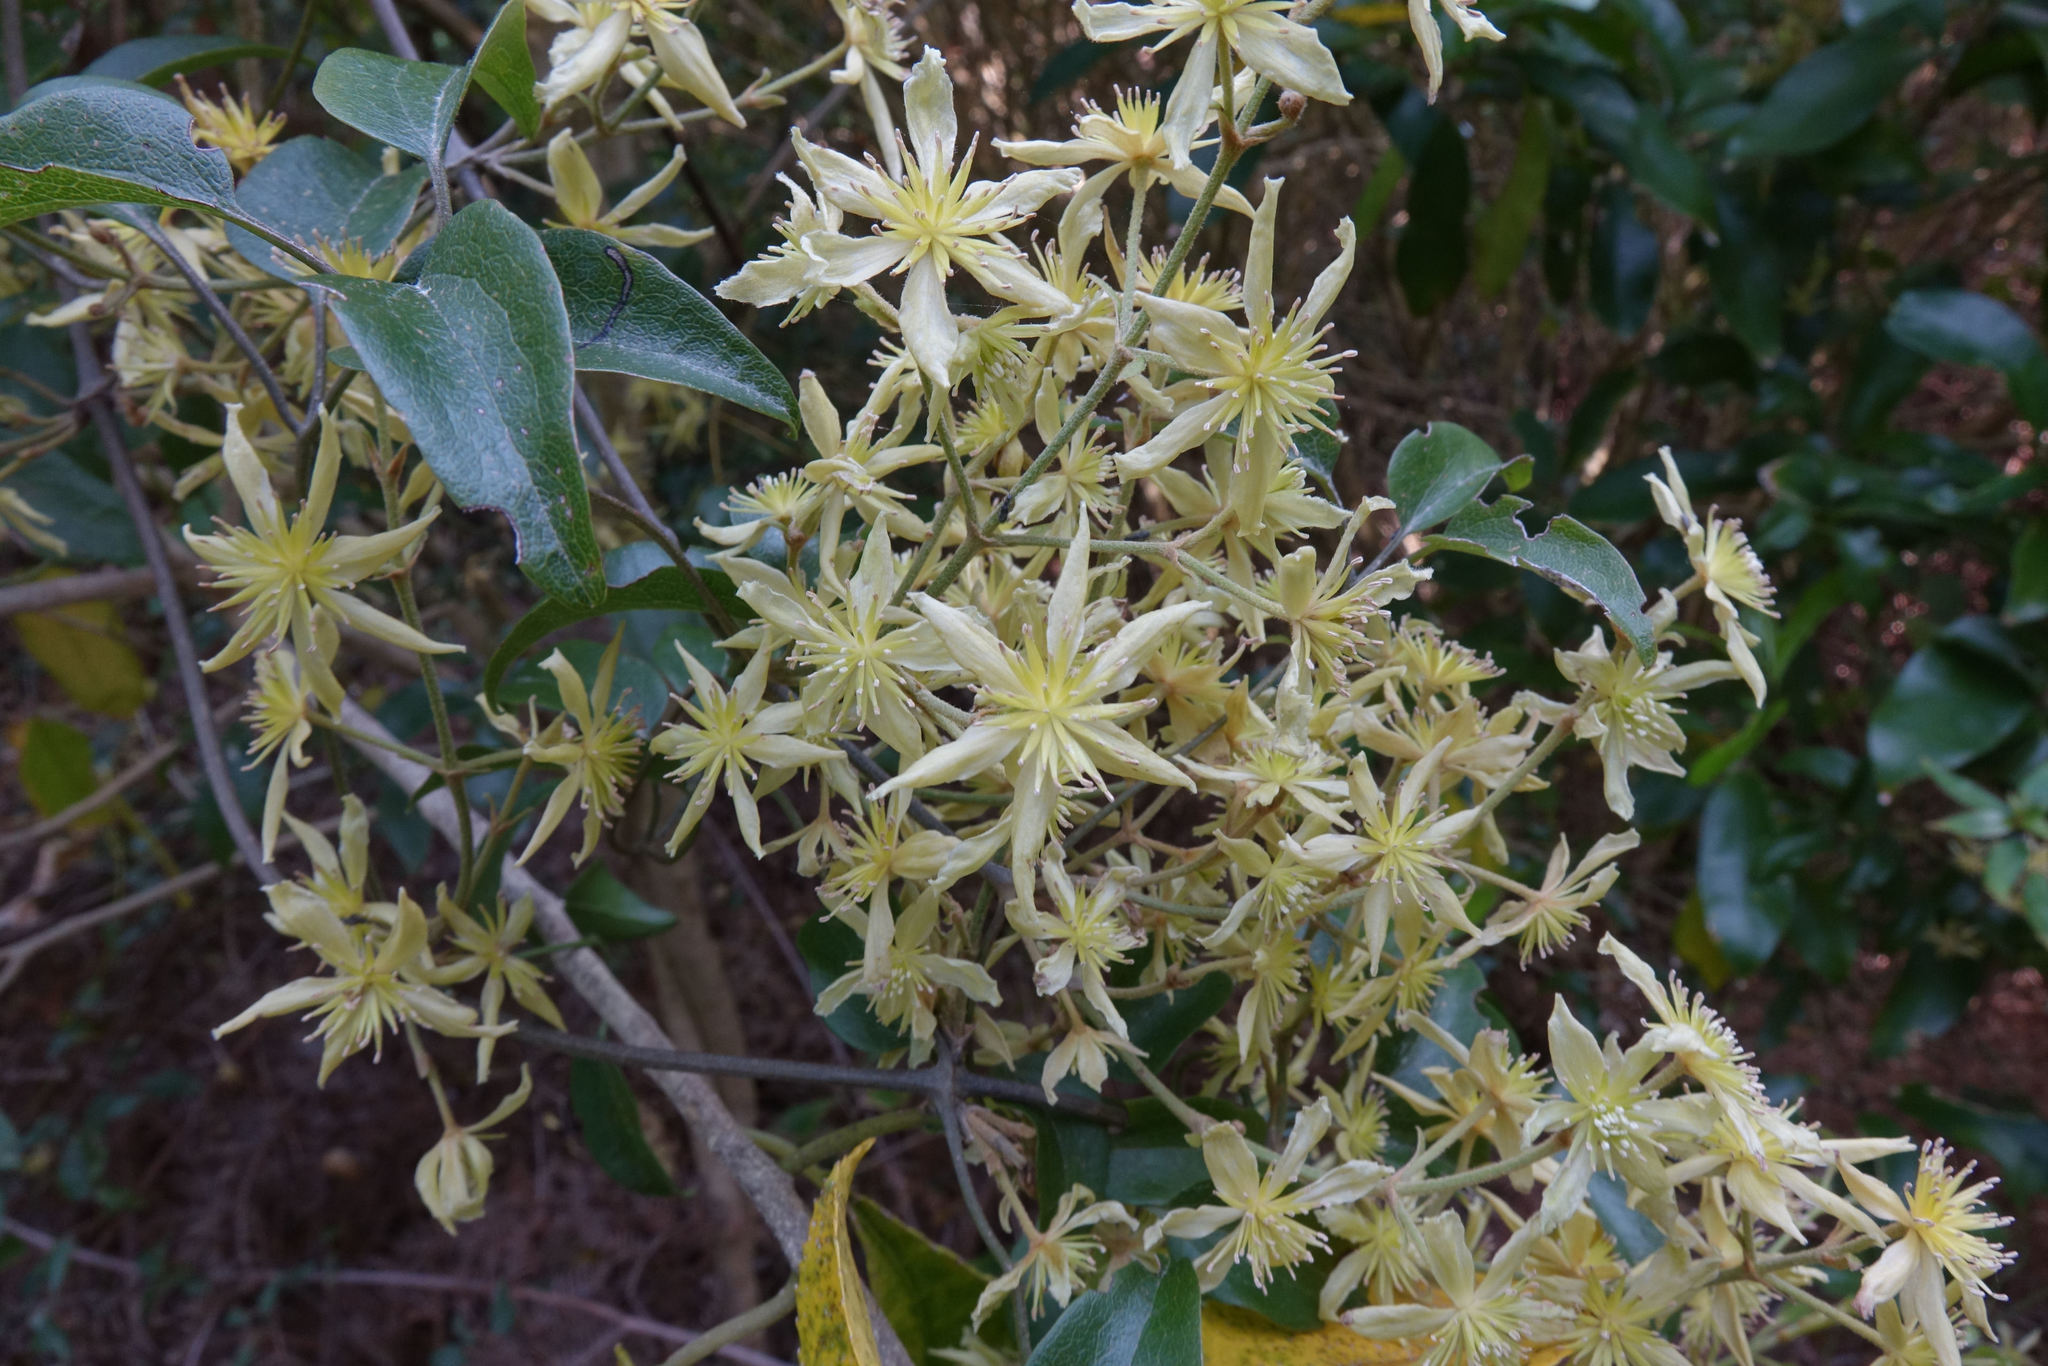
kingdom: Plantae
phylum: Tracheophyta
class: Magnoliopsida
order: Ranunculales
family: Ranunculaceae
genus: Clematis
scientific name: Clematis foetida
